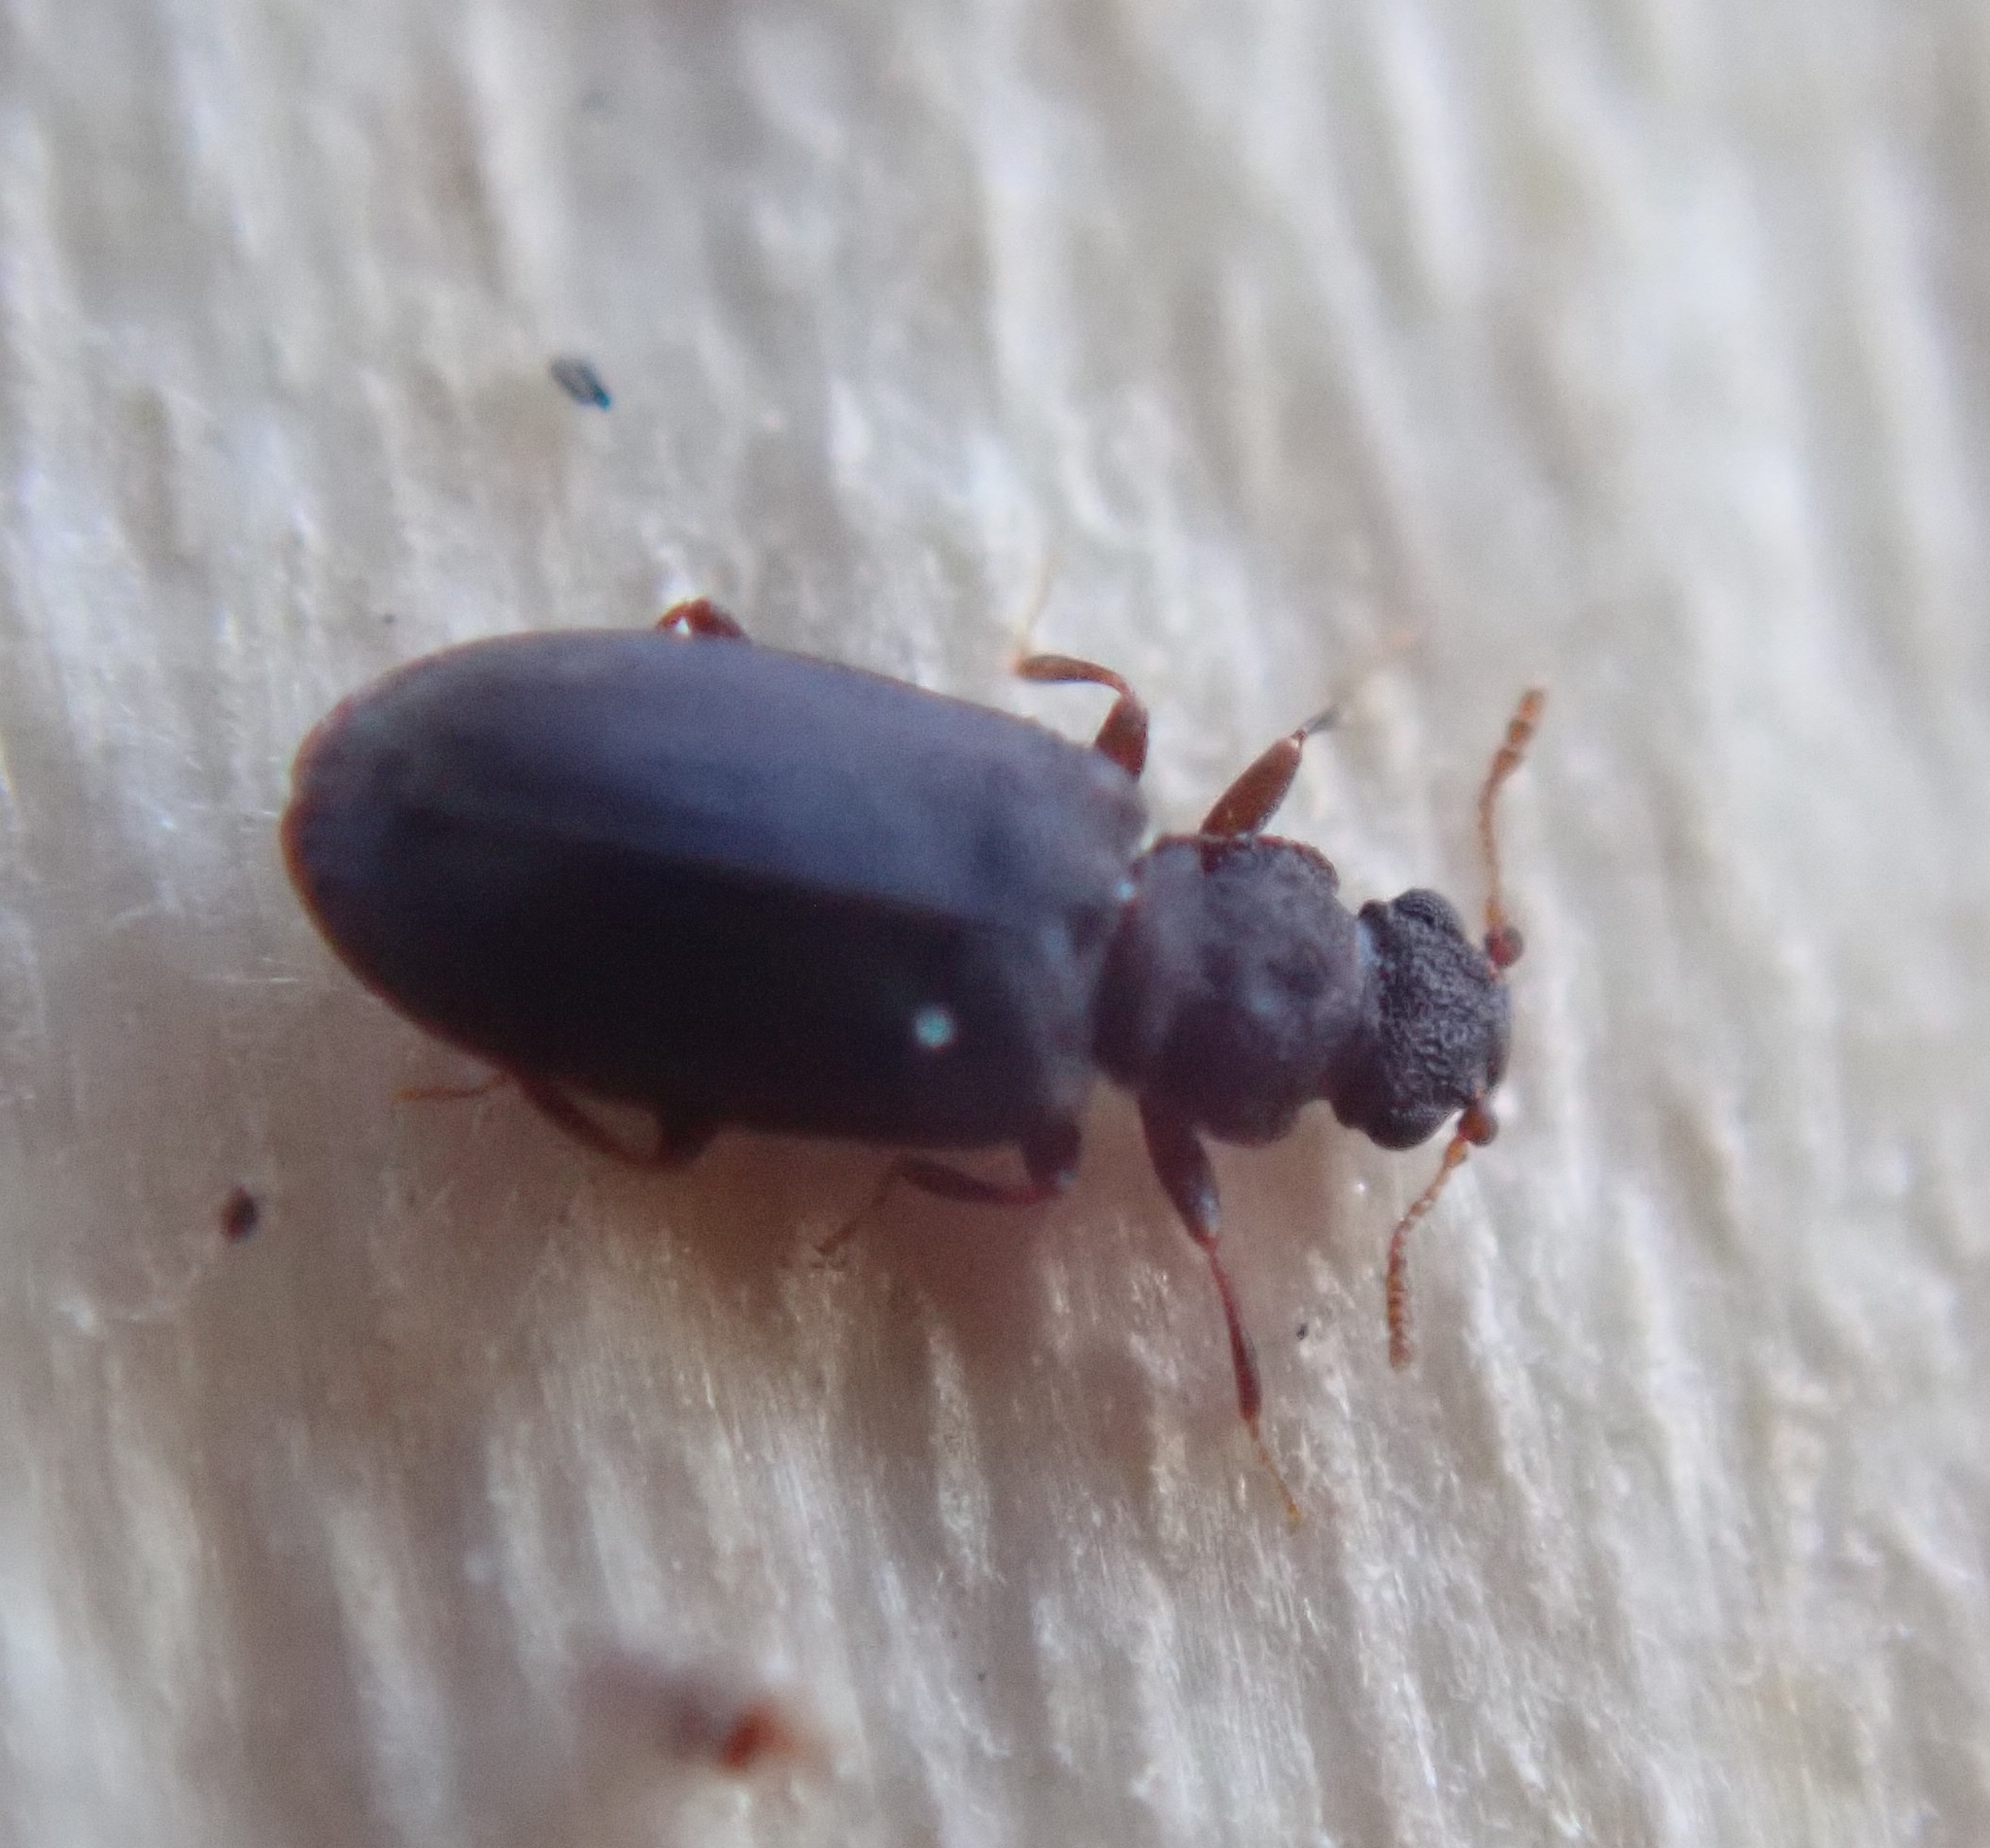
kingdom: Animalia
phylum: Arthropoda
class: Insecta
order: Coleoptera
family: Latridiidae
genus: Enicmus
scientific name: Enicmus brevicornis
